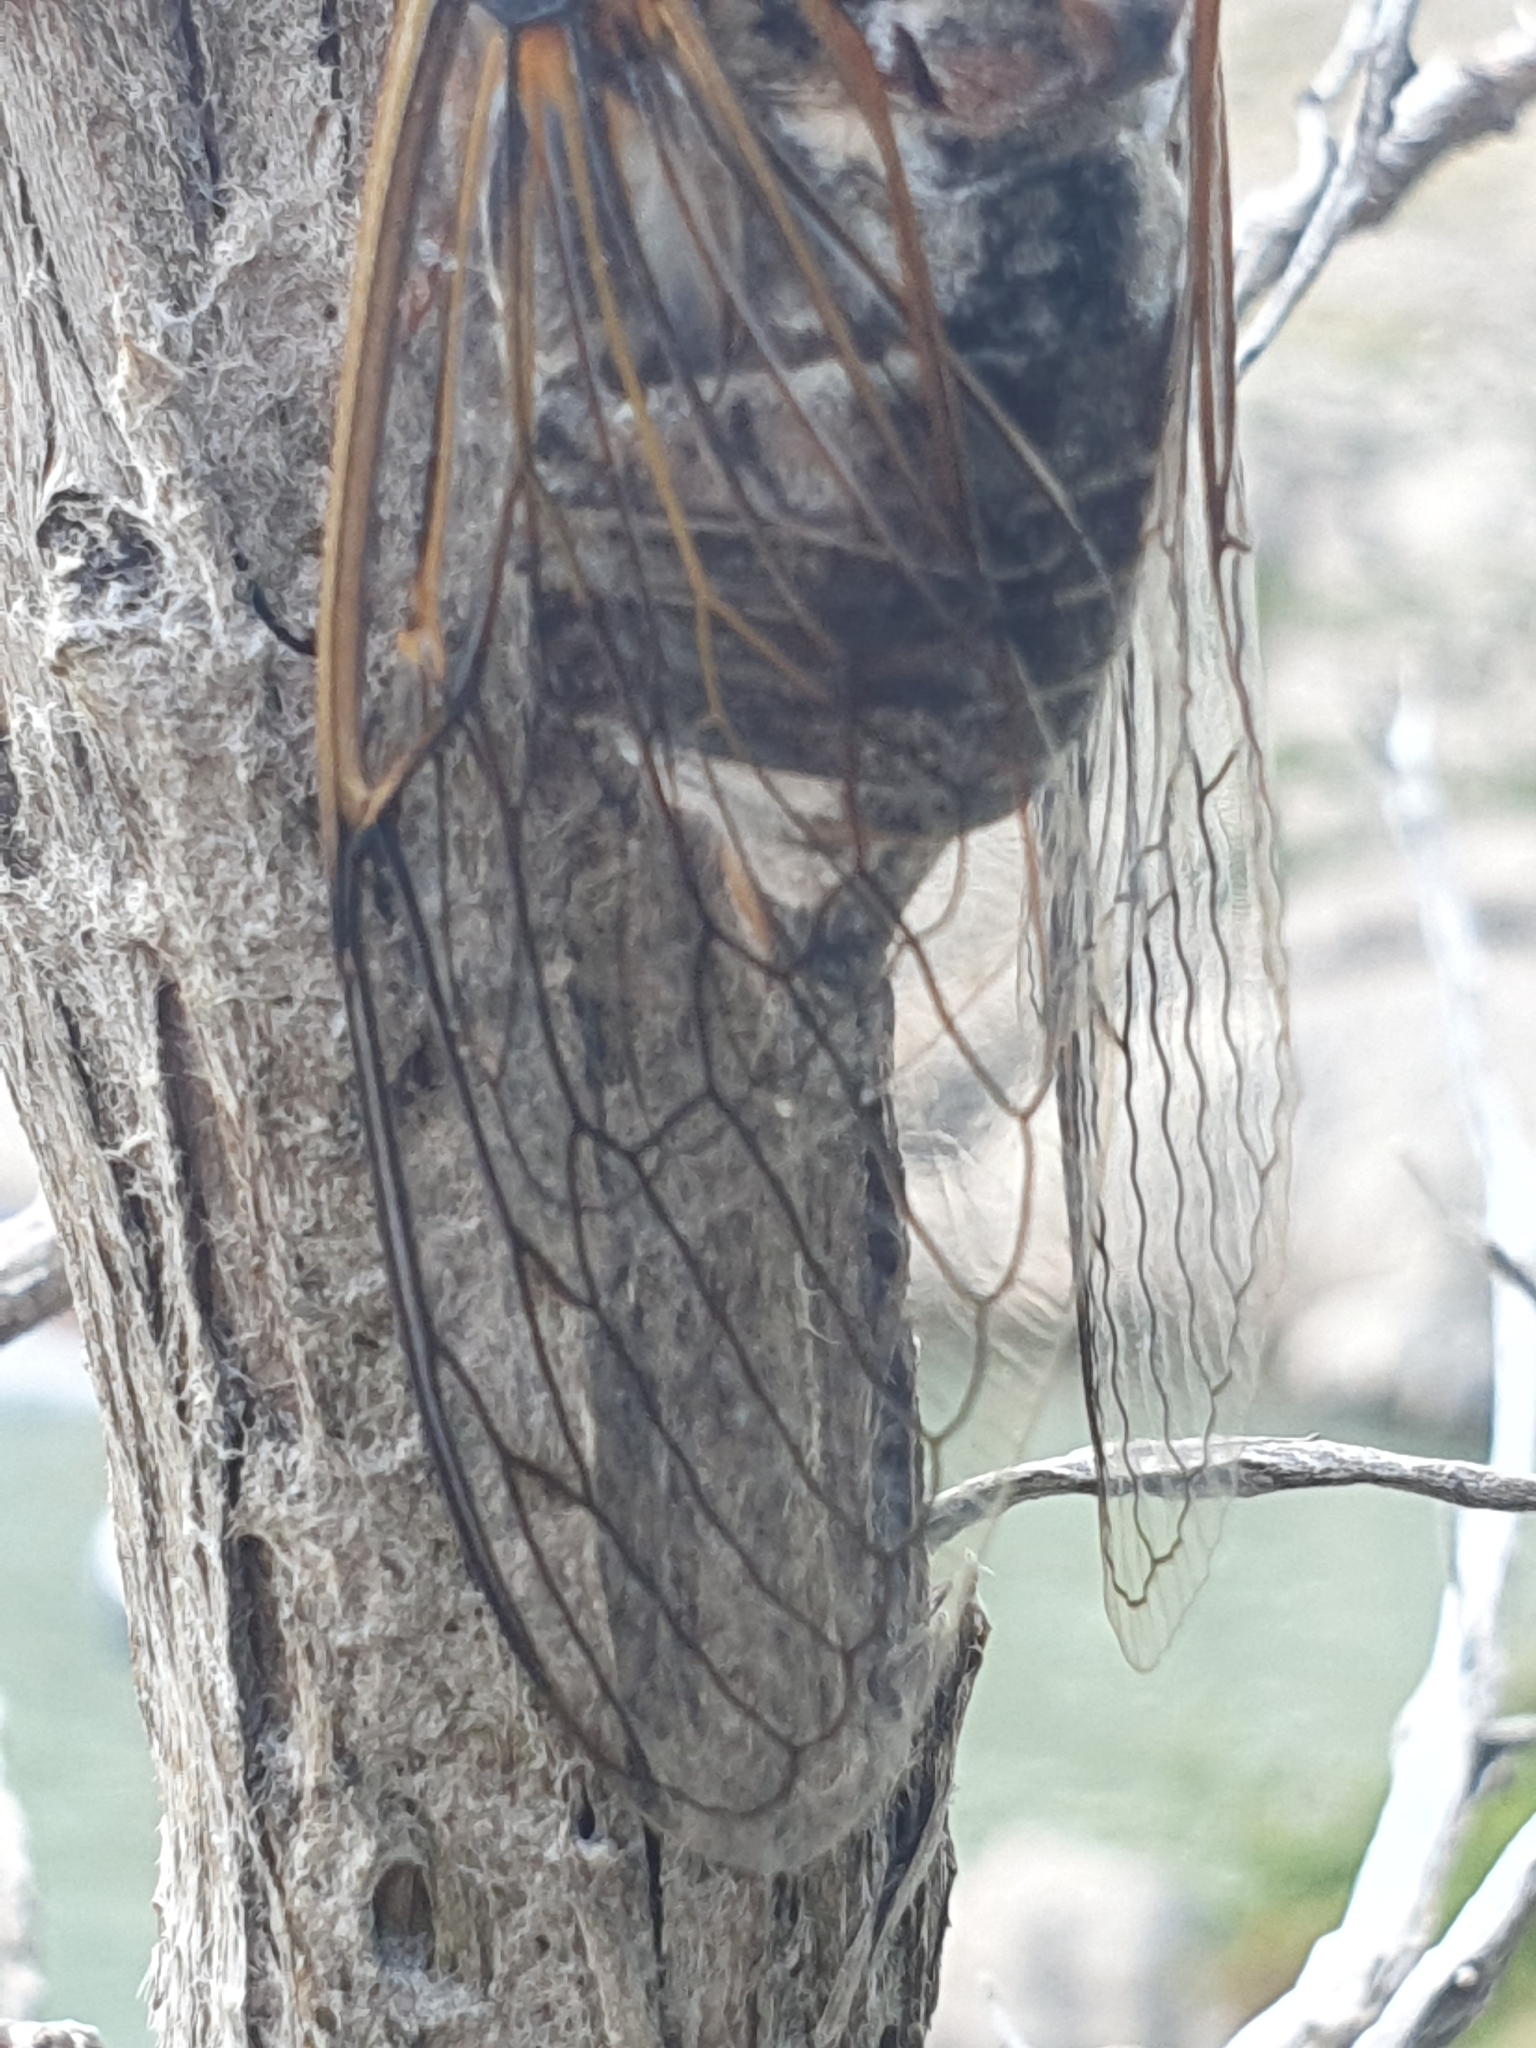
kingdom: Animalia
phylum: Arthropoda
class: Insecta
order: Hemiptera
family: Cicadidae
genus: Lyristes
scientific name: Lyristes plebejus
